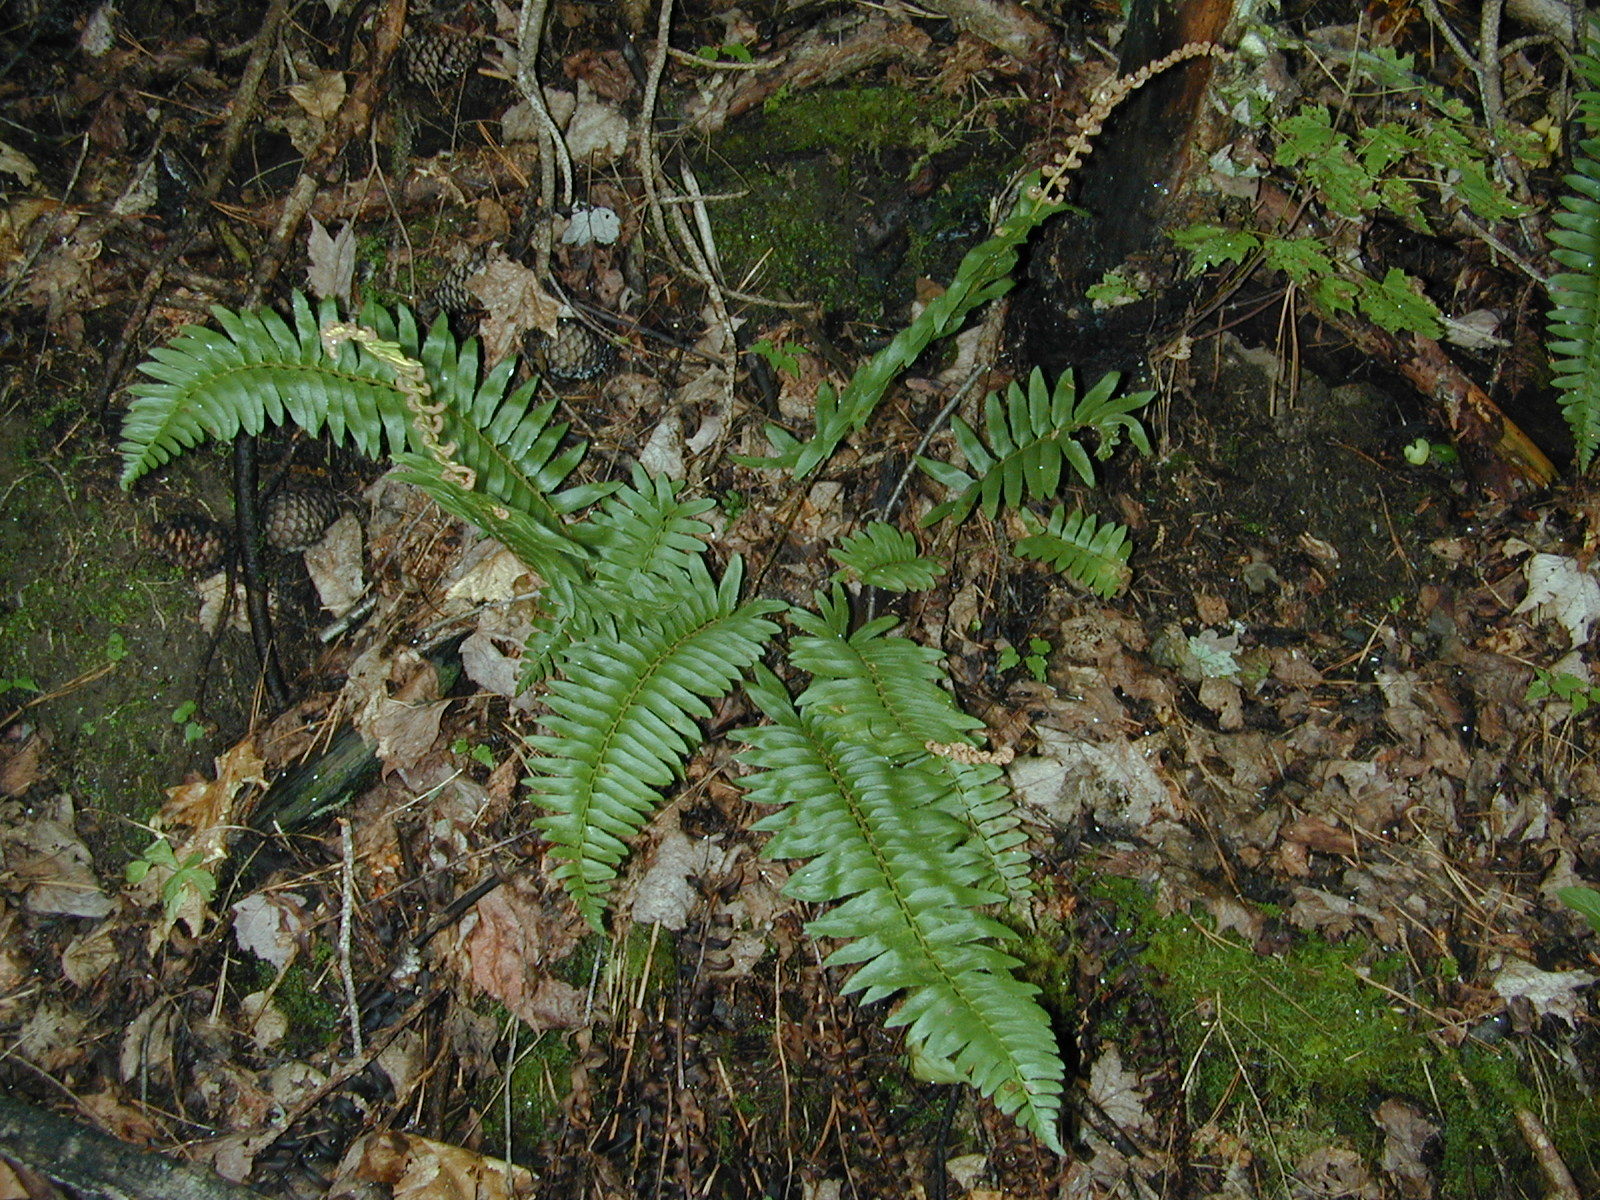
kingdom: Plantae
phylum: Tracheophyta
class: Polypodiopsida
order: Polypodiales
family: Dryopteridaceae
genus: Polystichum
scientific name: Polystichum acrostichoides
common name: Christmas fern
